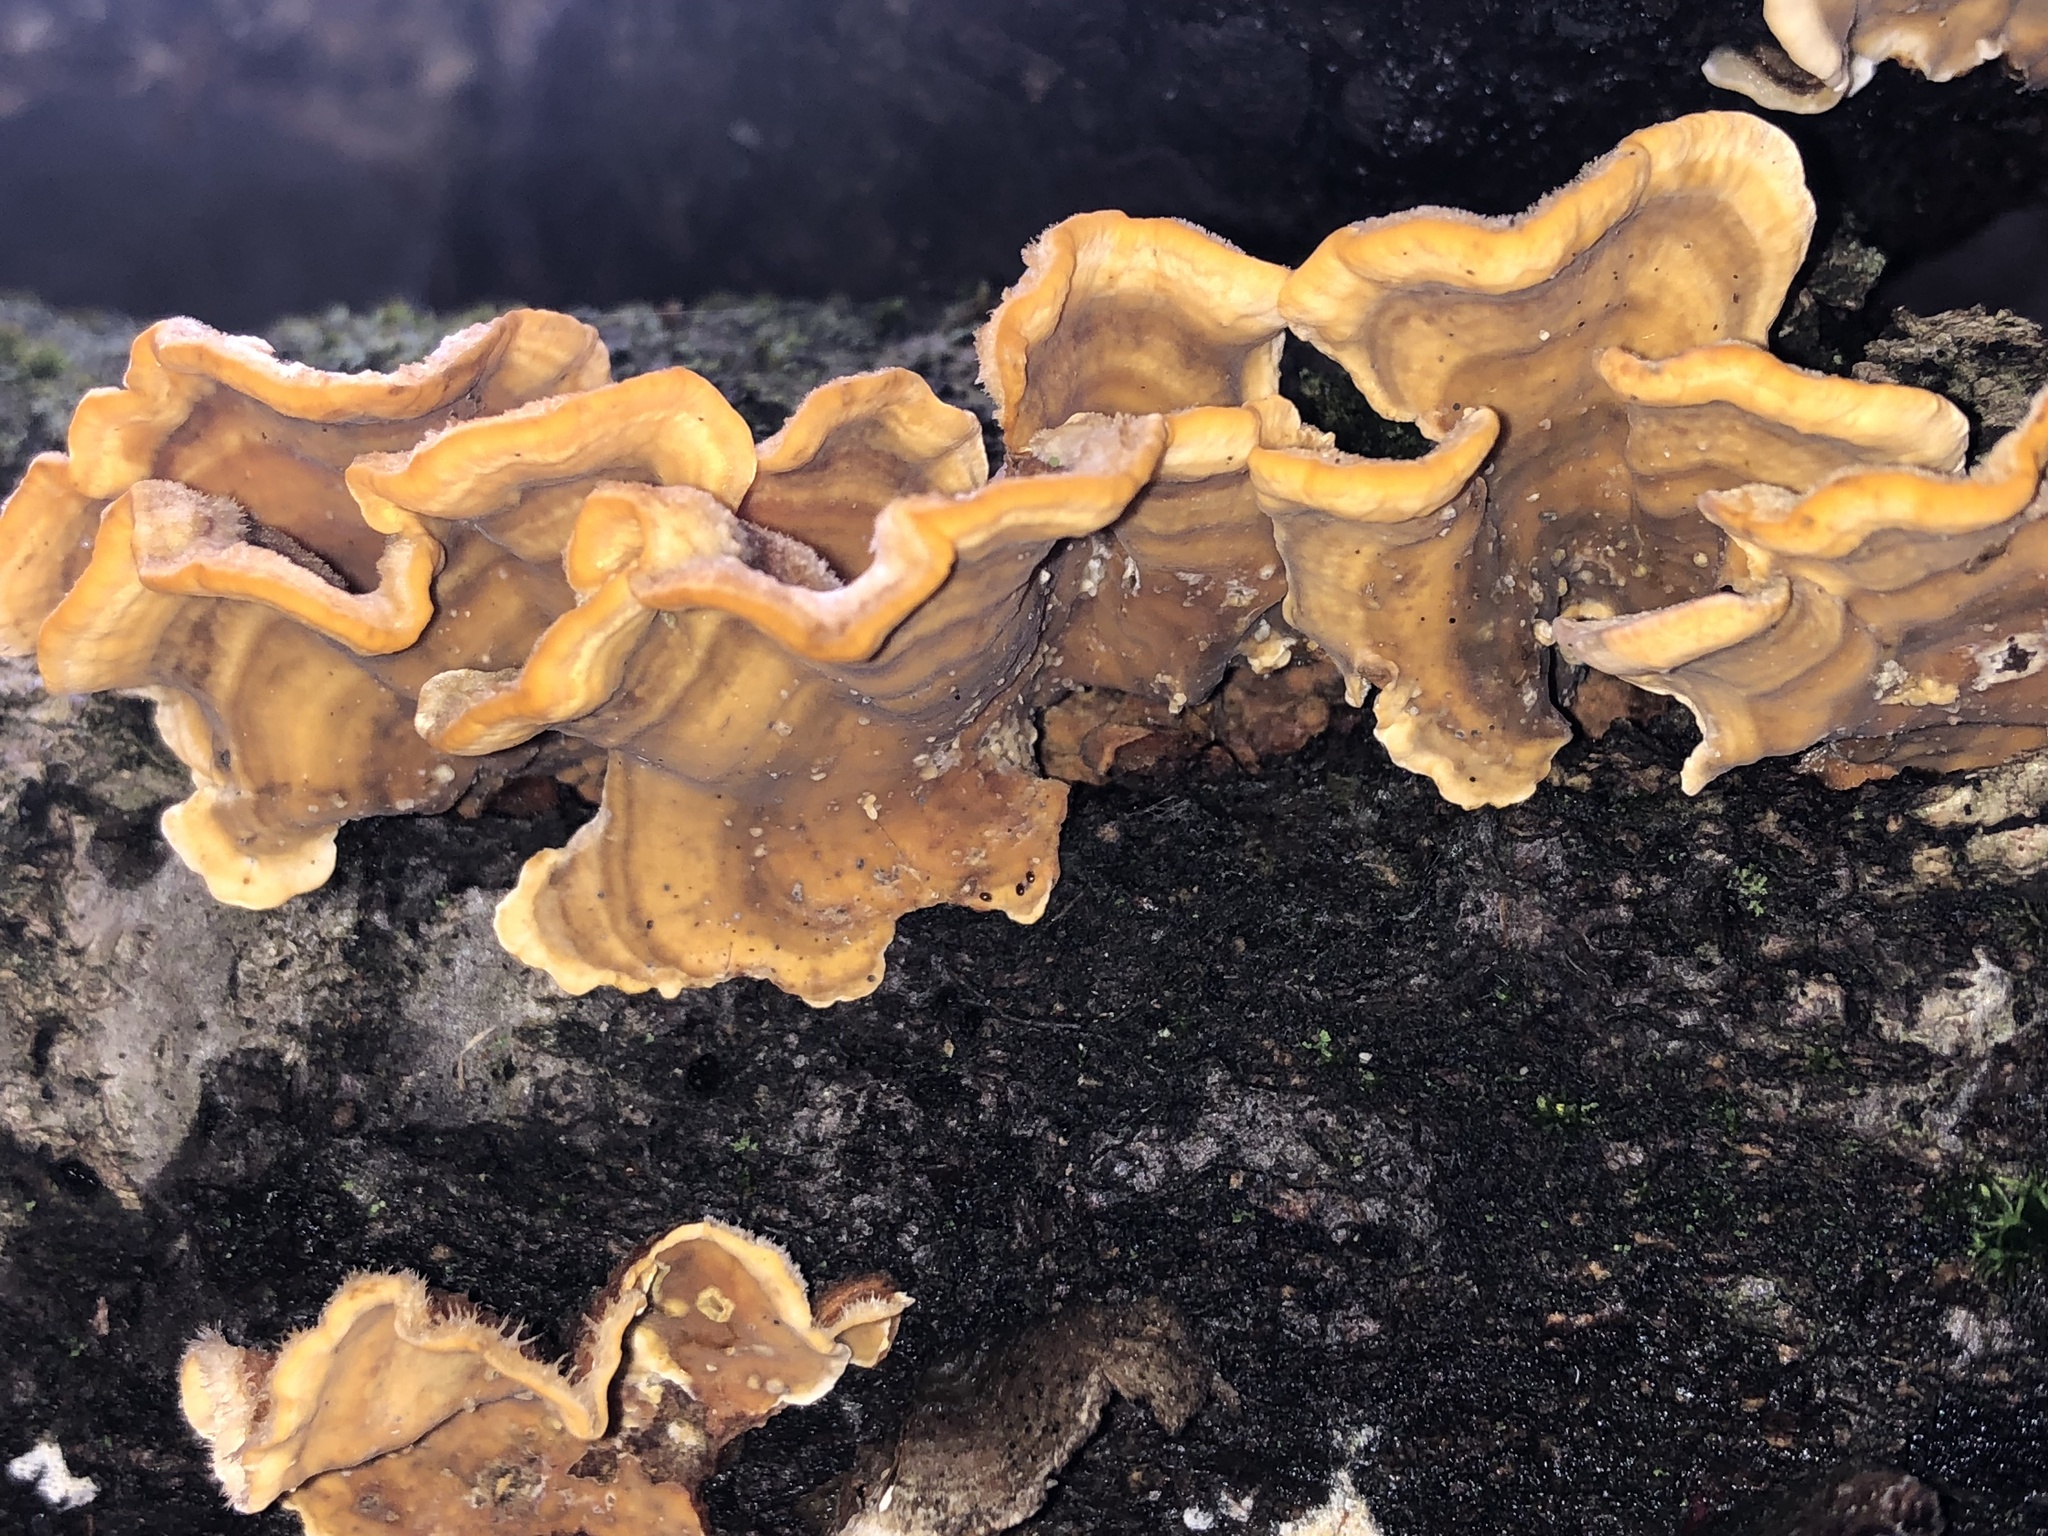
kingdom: Fungi
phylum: Basidiomycota
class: Agaricomycetes
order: Russulales
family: Stereaceae
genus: Stereum
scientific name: Stereum hirsutum
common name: Hairy curtain crust
